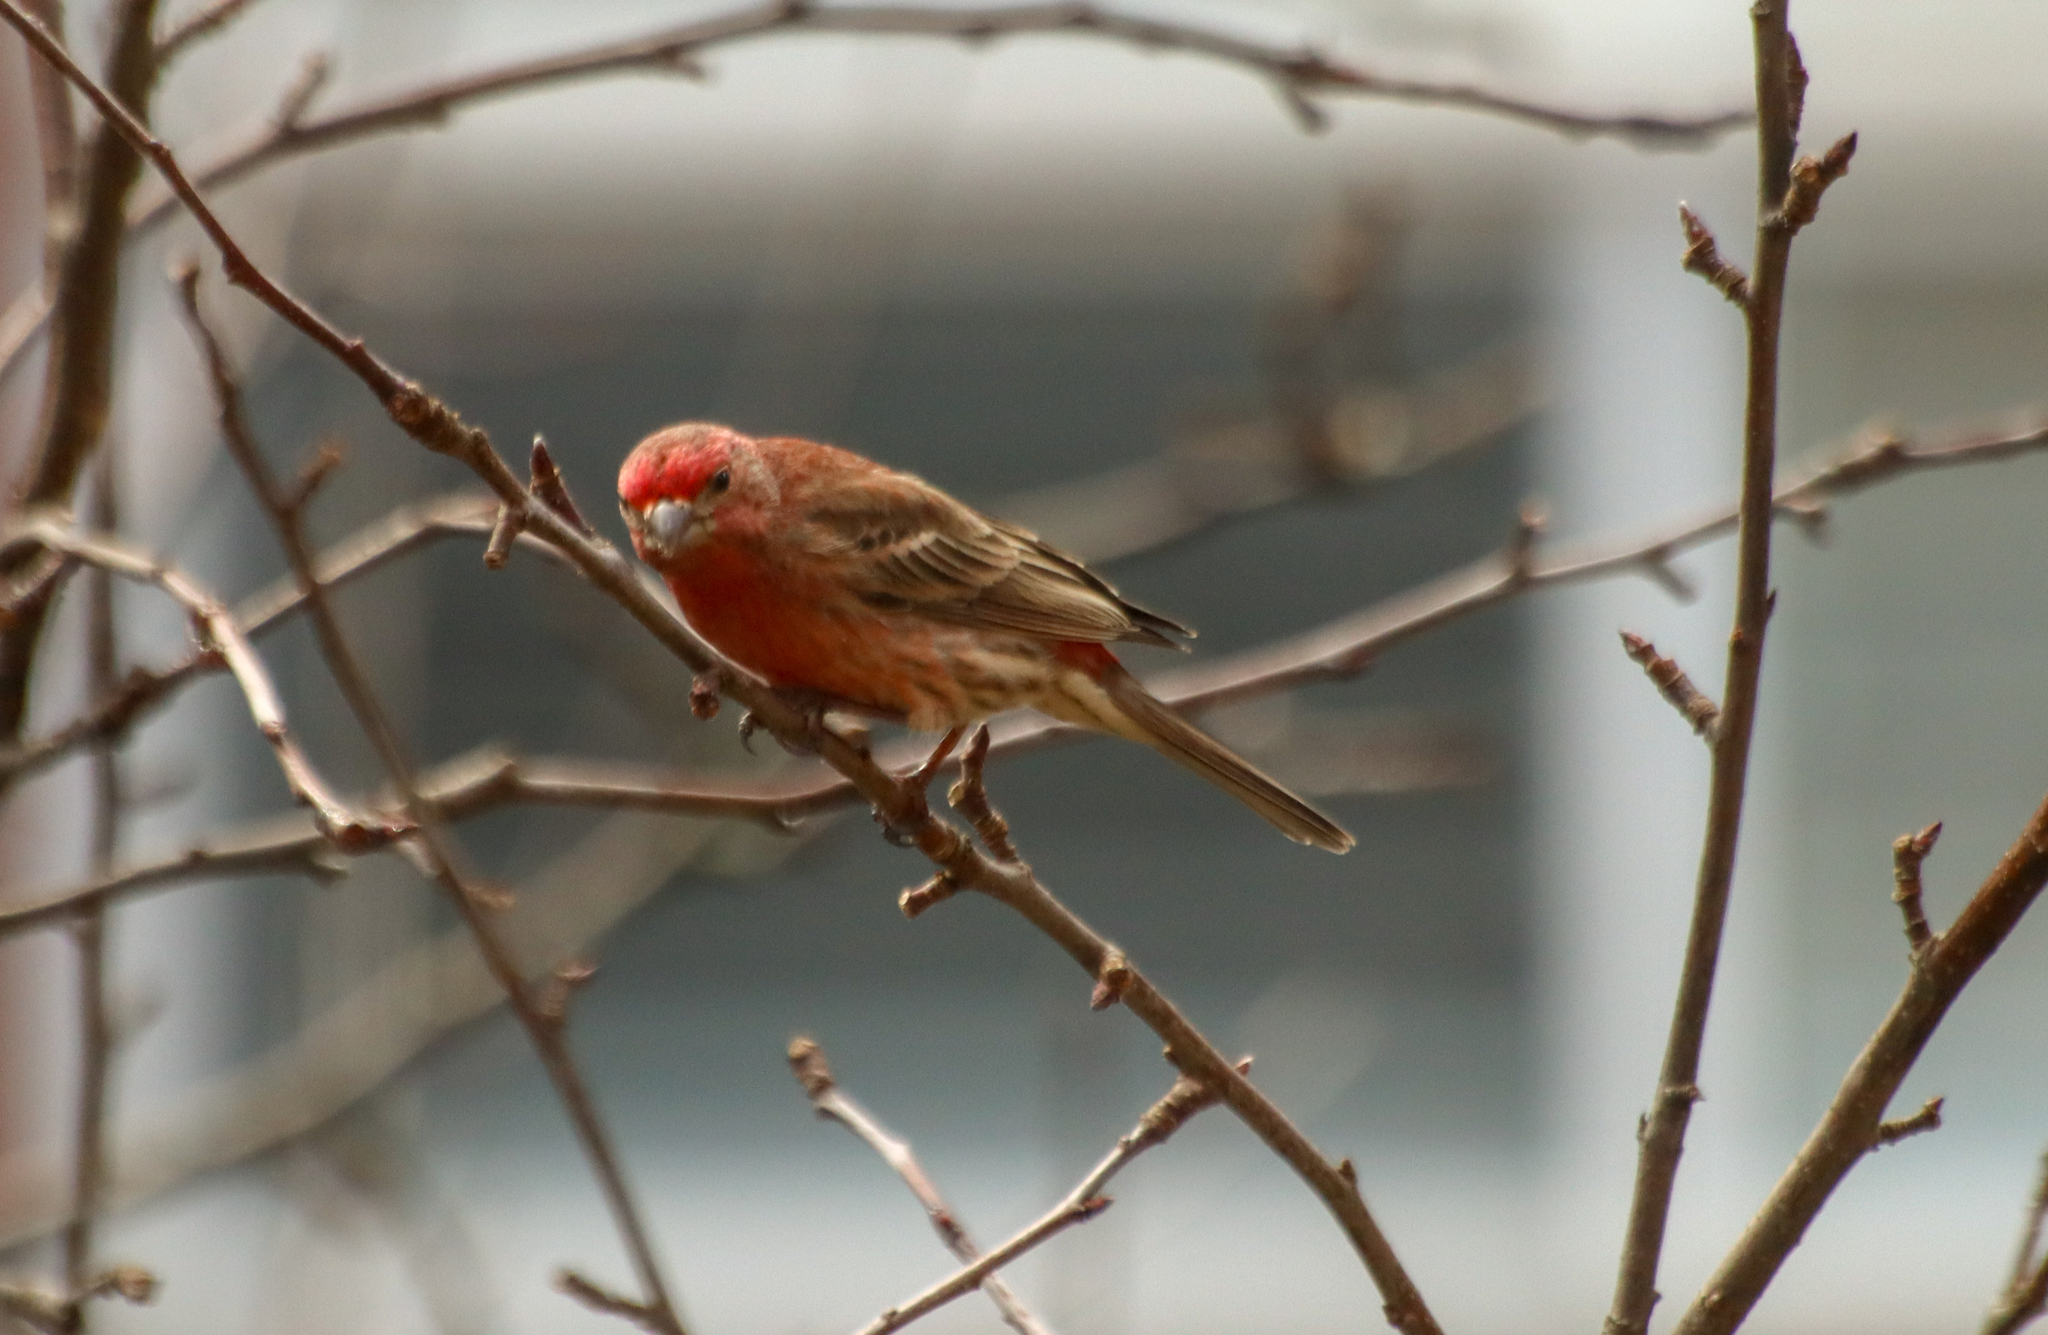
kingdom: Animalia
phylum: Chordata
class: Aves
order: Passeriformes
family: Fringillidae
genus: Haemorhous
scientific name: Haemorhous mexicanus
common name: House finch
